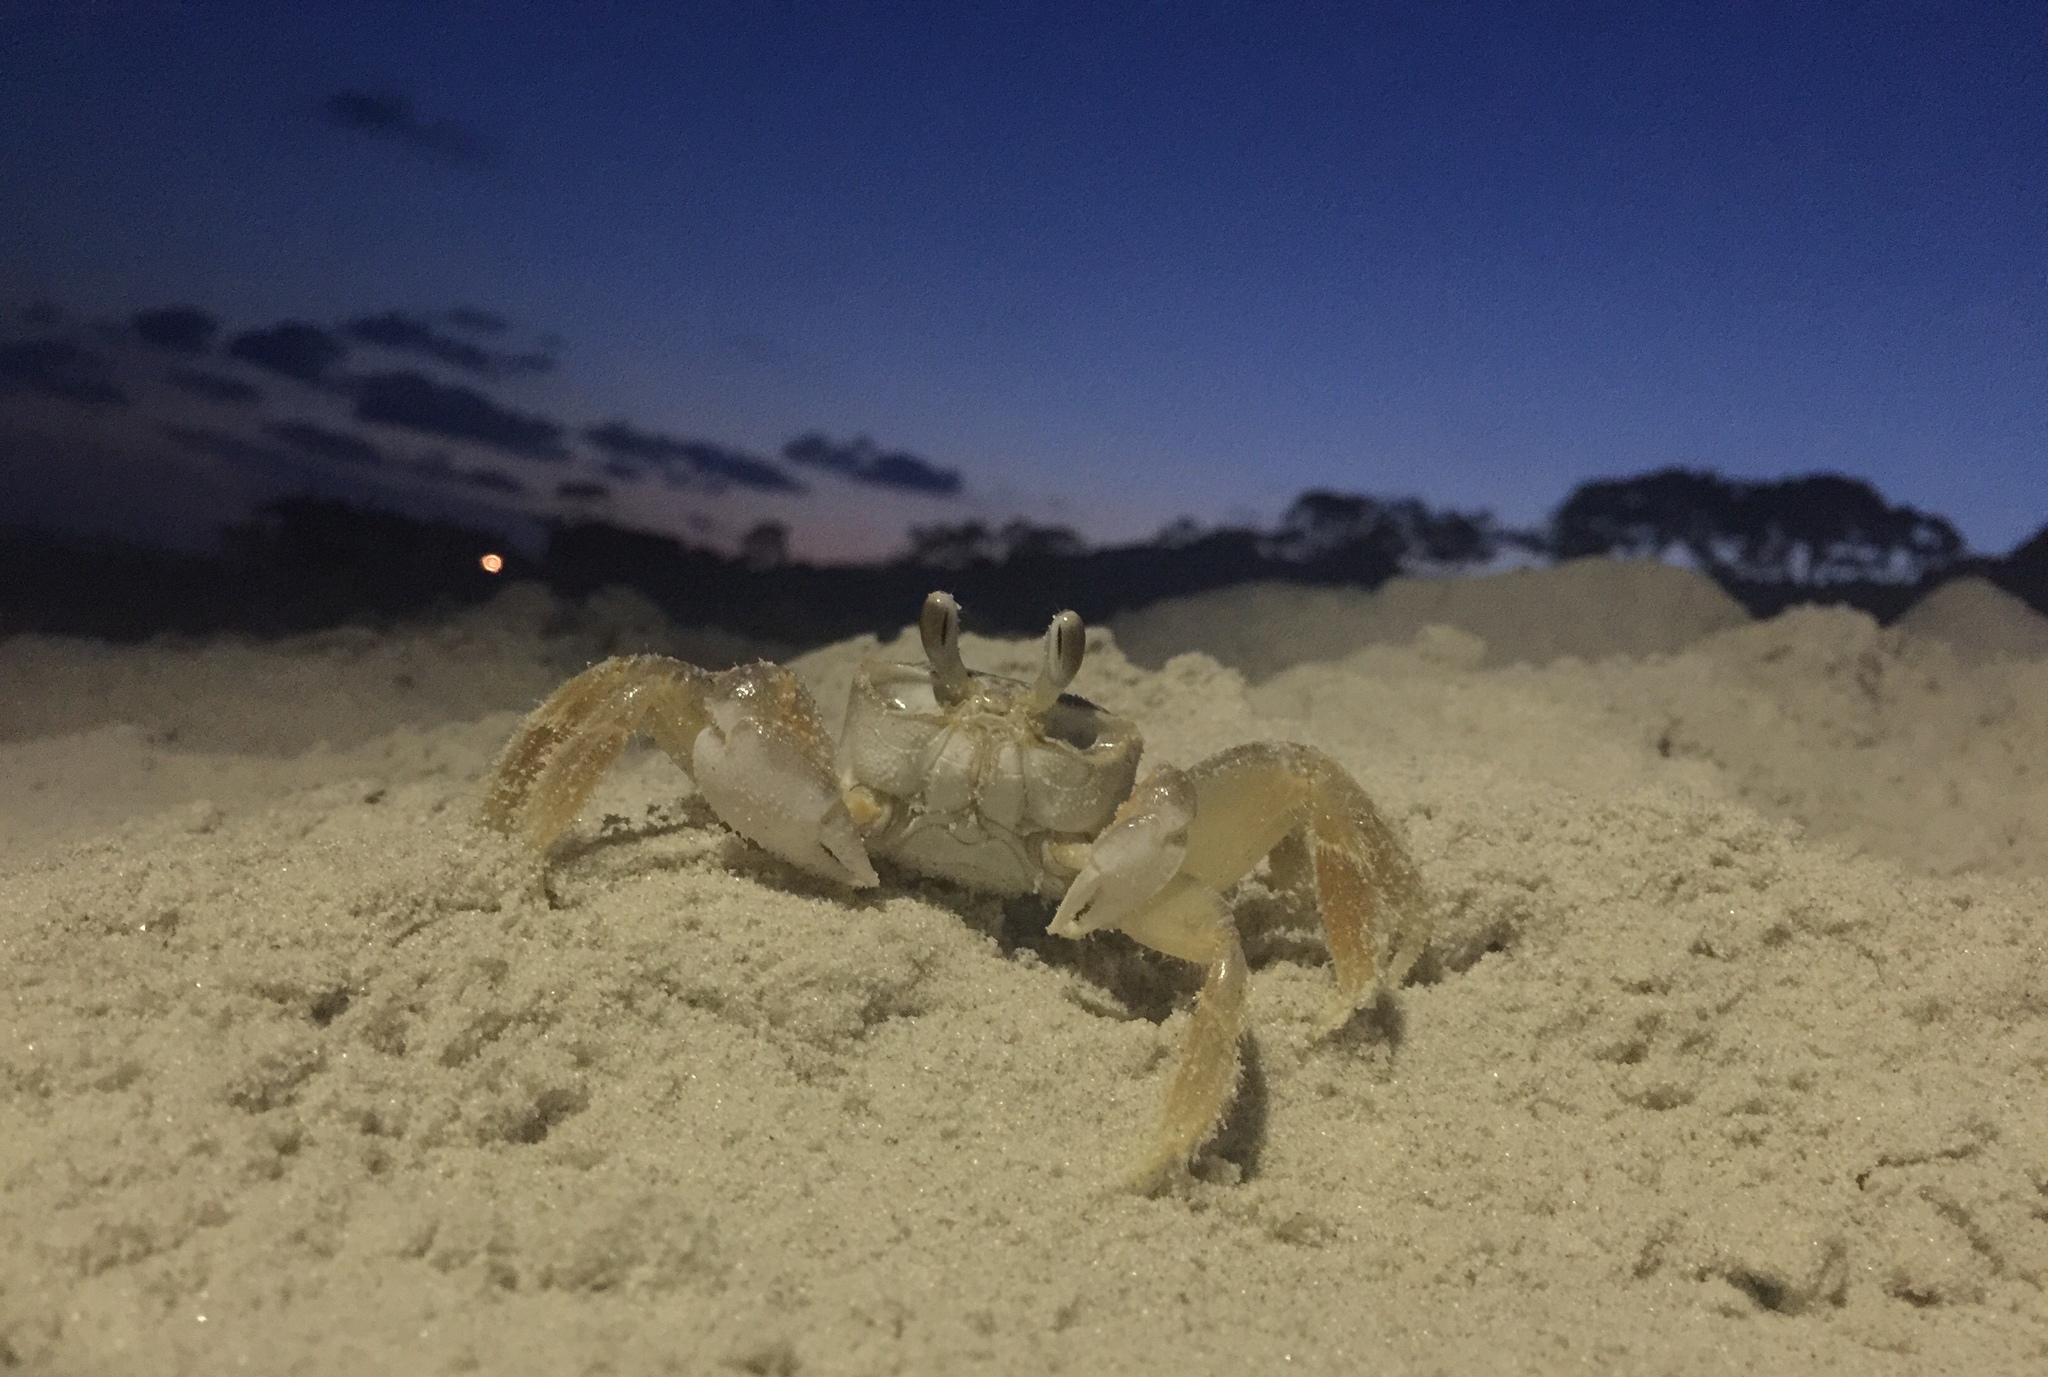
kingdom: Animalia
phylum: Arthropoda
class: Malacostraca
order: Decapoda
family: Ocypodidae
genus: Ocypode
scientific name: Ocypode quadrata
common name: Ghost crab
